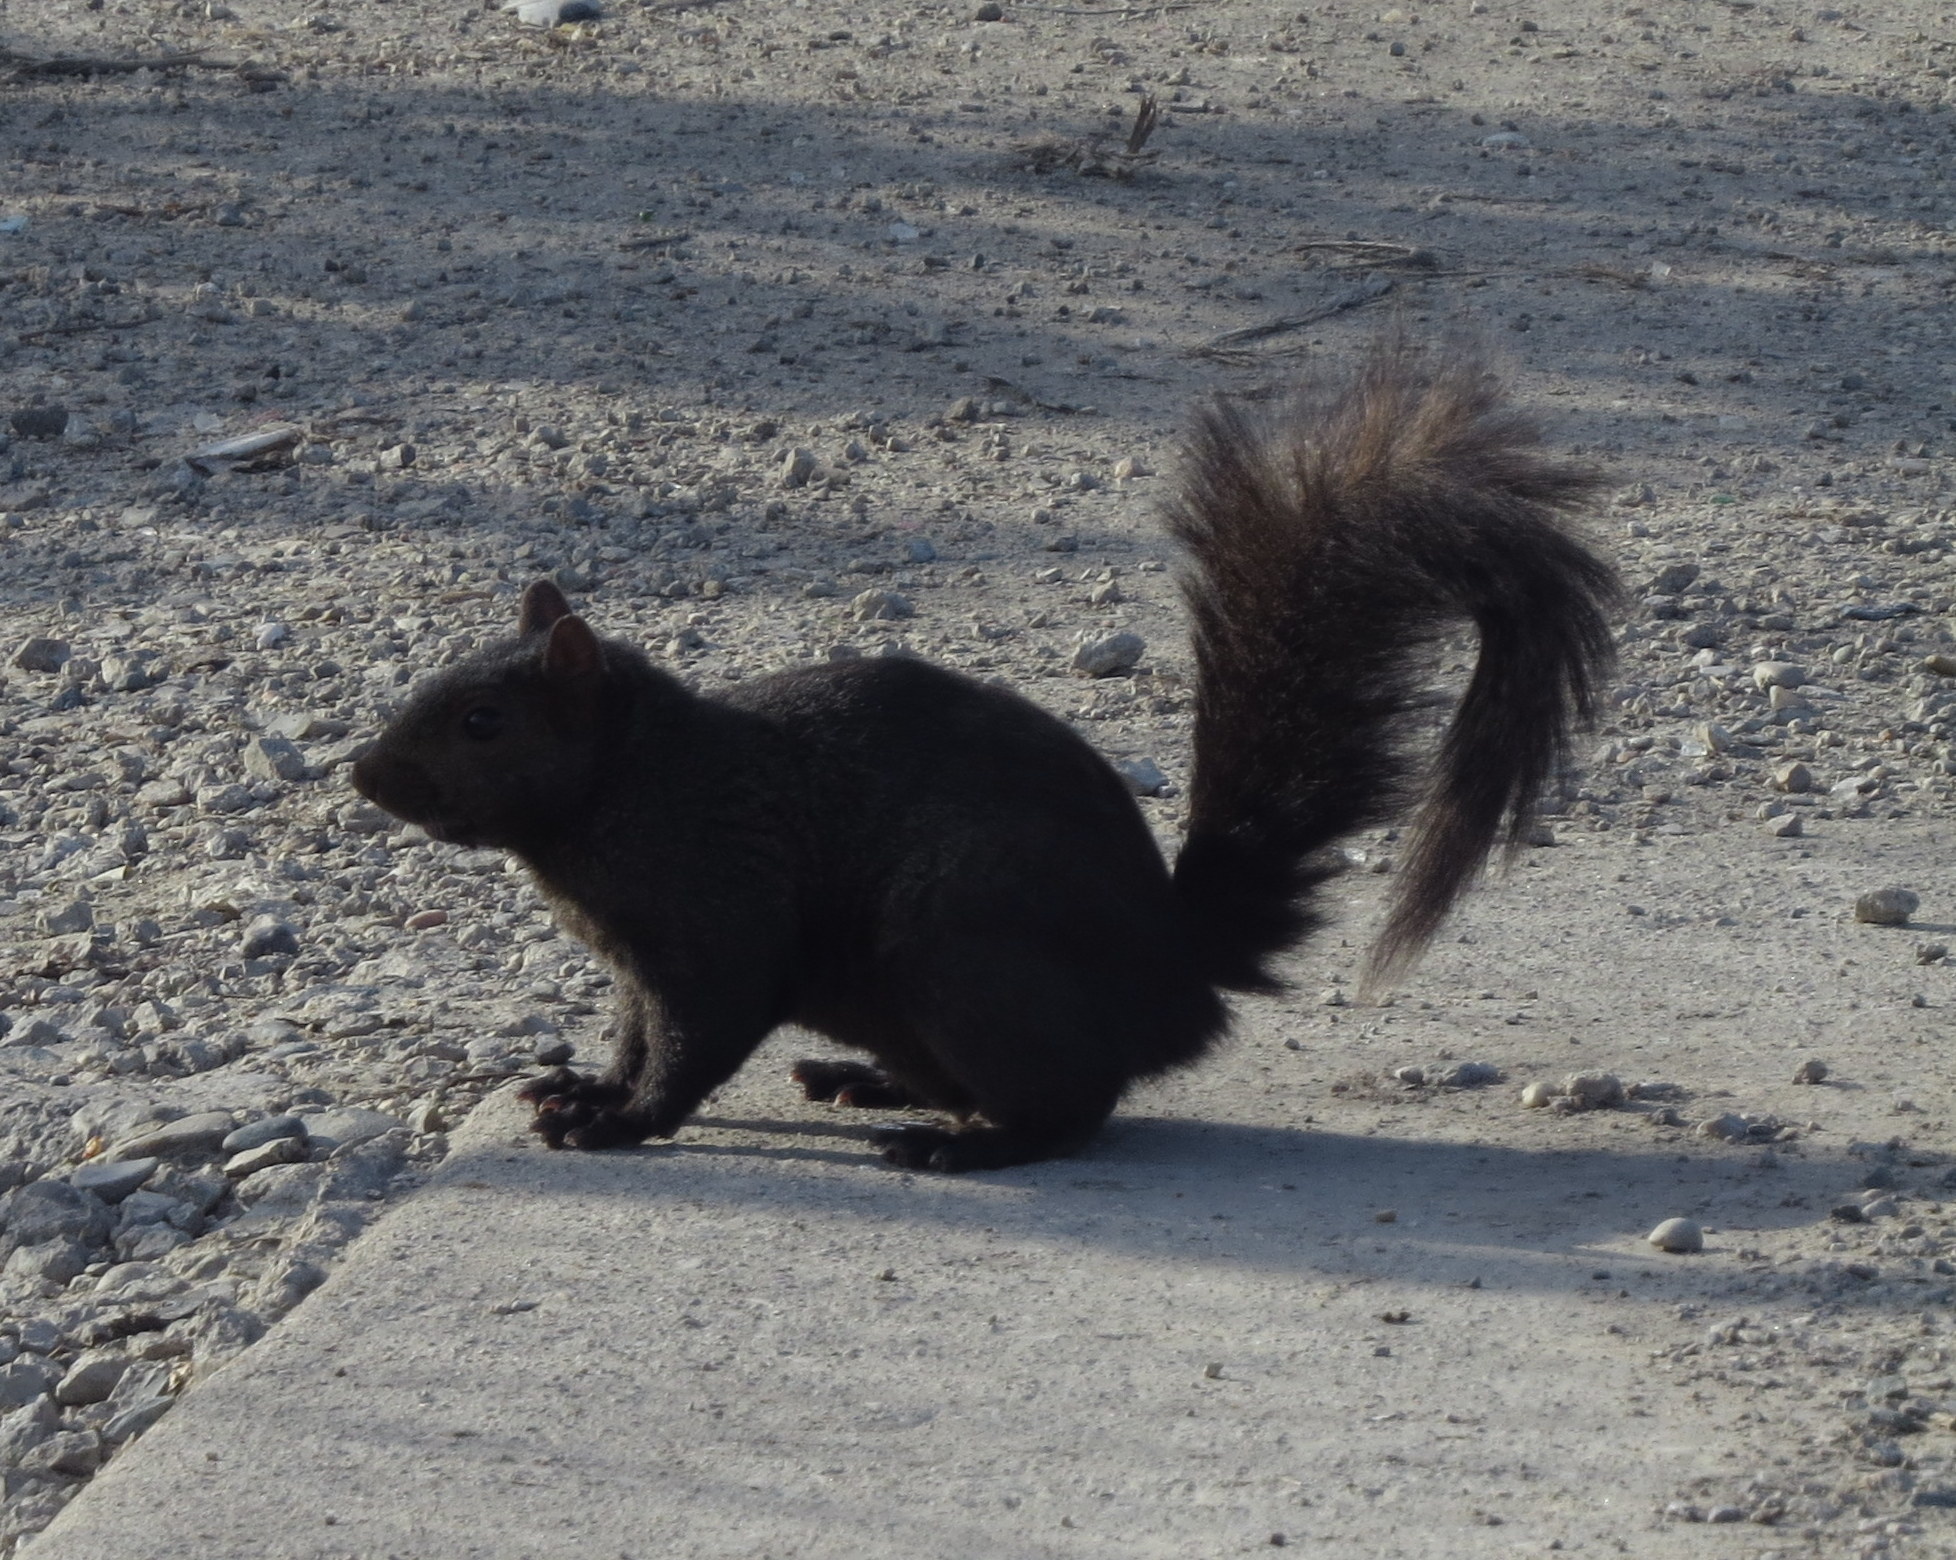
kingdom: Animalia
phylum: Chordata
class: Mammalia
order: Rodentia
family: Sciuridae
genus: Sciurus
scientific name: Sciurus carolinensis
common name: Eastern gray squirrel
